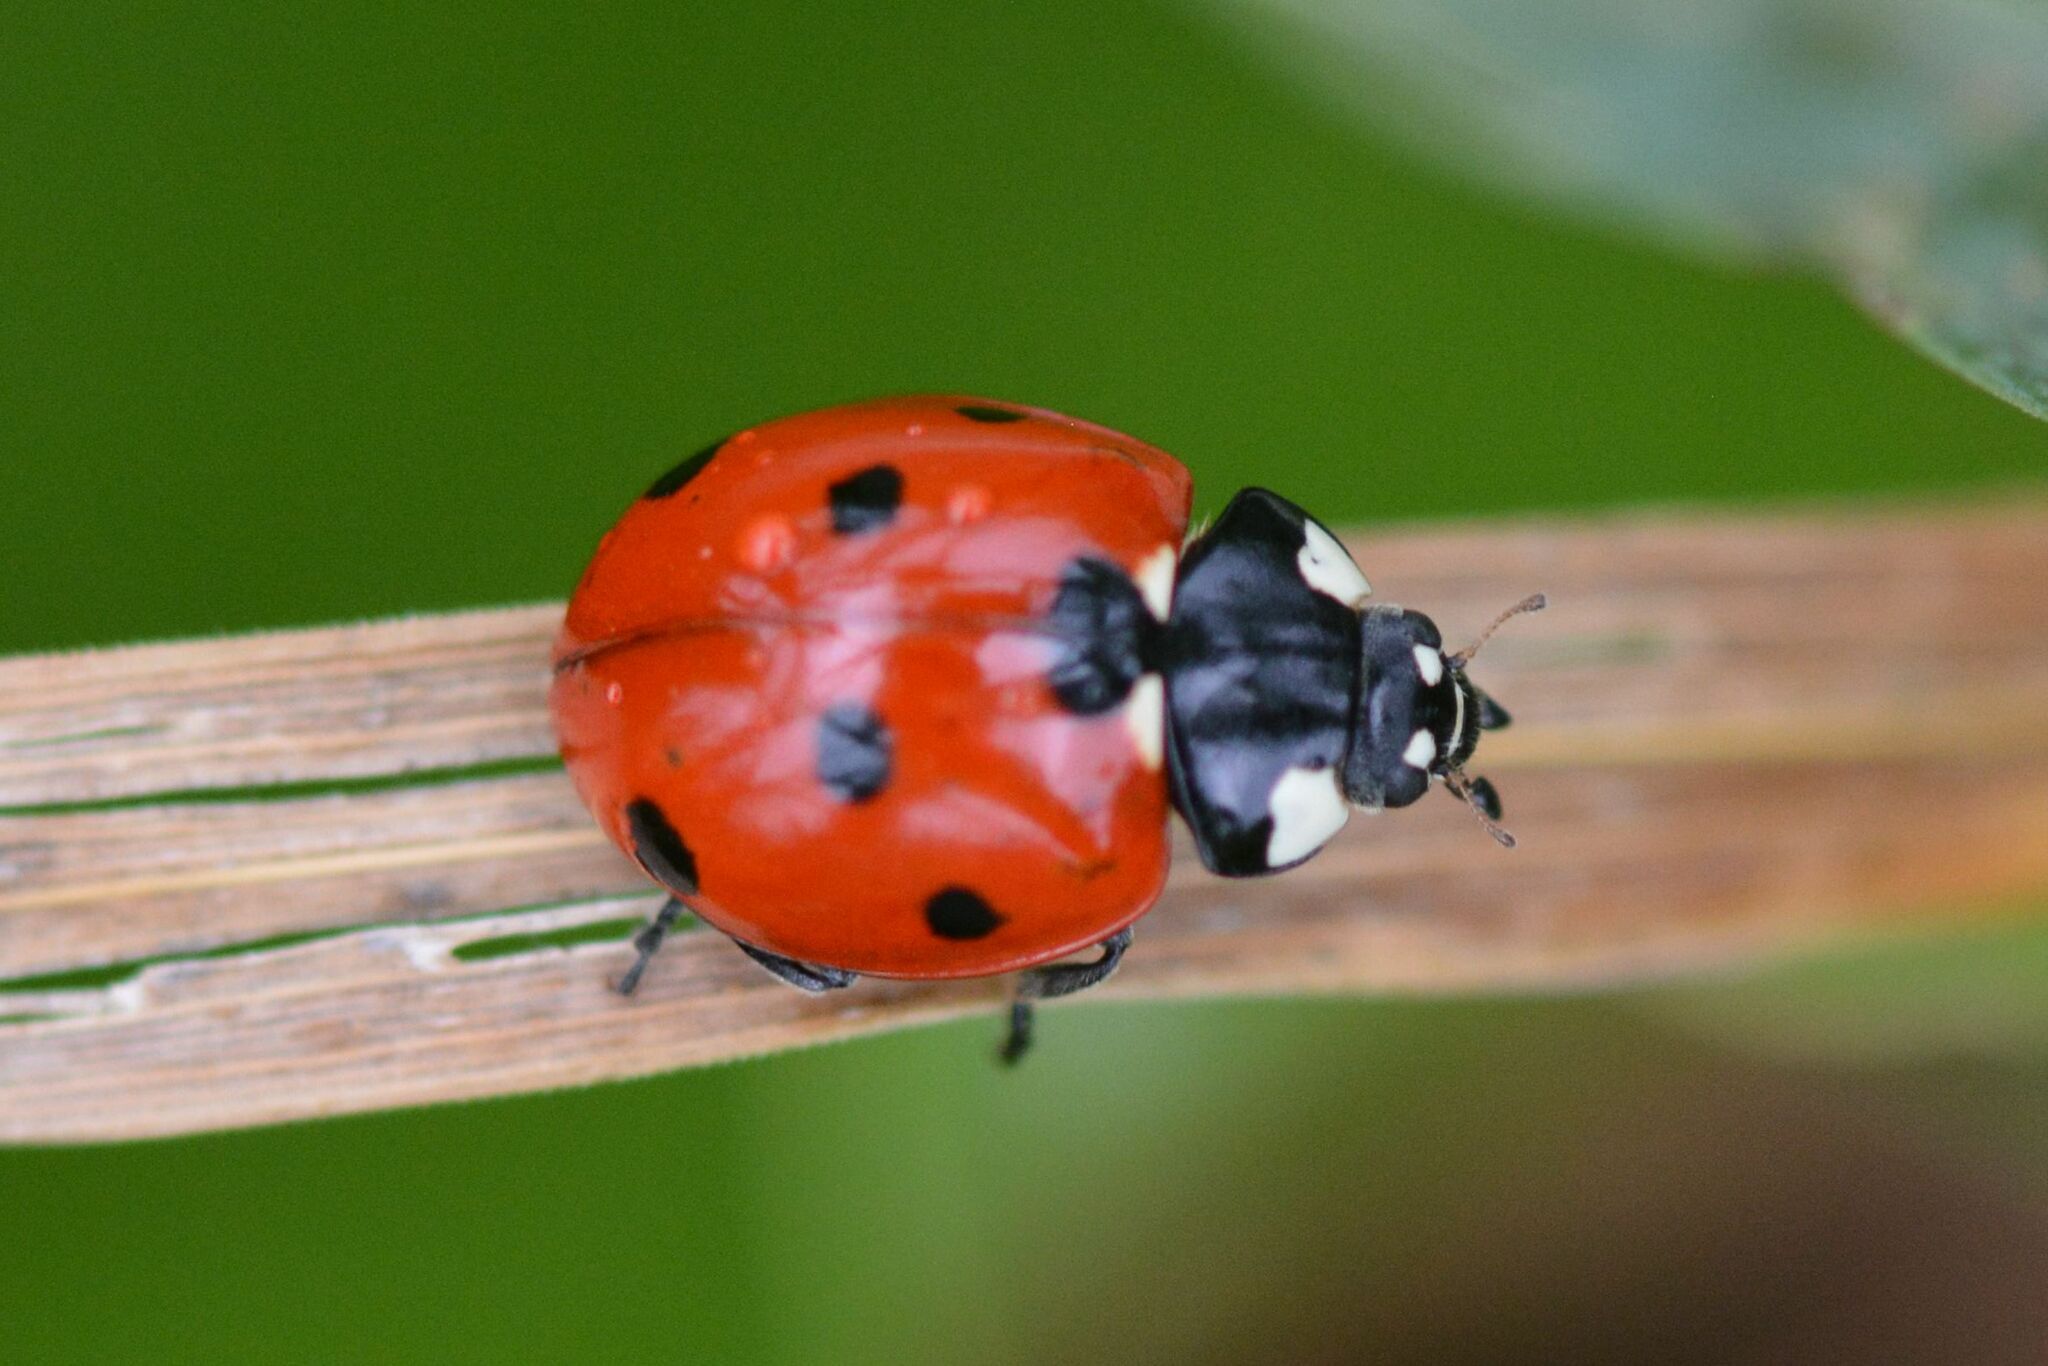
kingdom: Animalia
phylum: Arthropoda
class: Insecta
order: Coleoptera
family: Coccinellidae
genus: Coccinella
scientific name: Coccinella septempunctata
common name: Sevenspotted lady beetle
